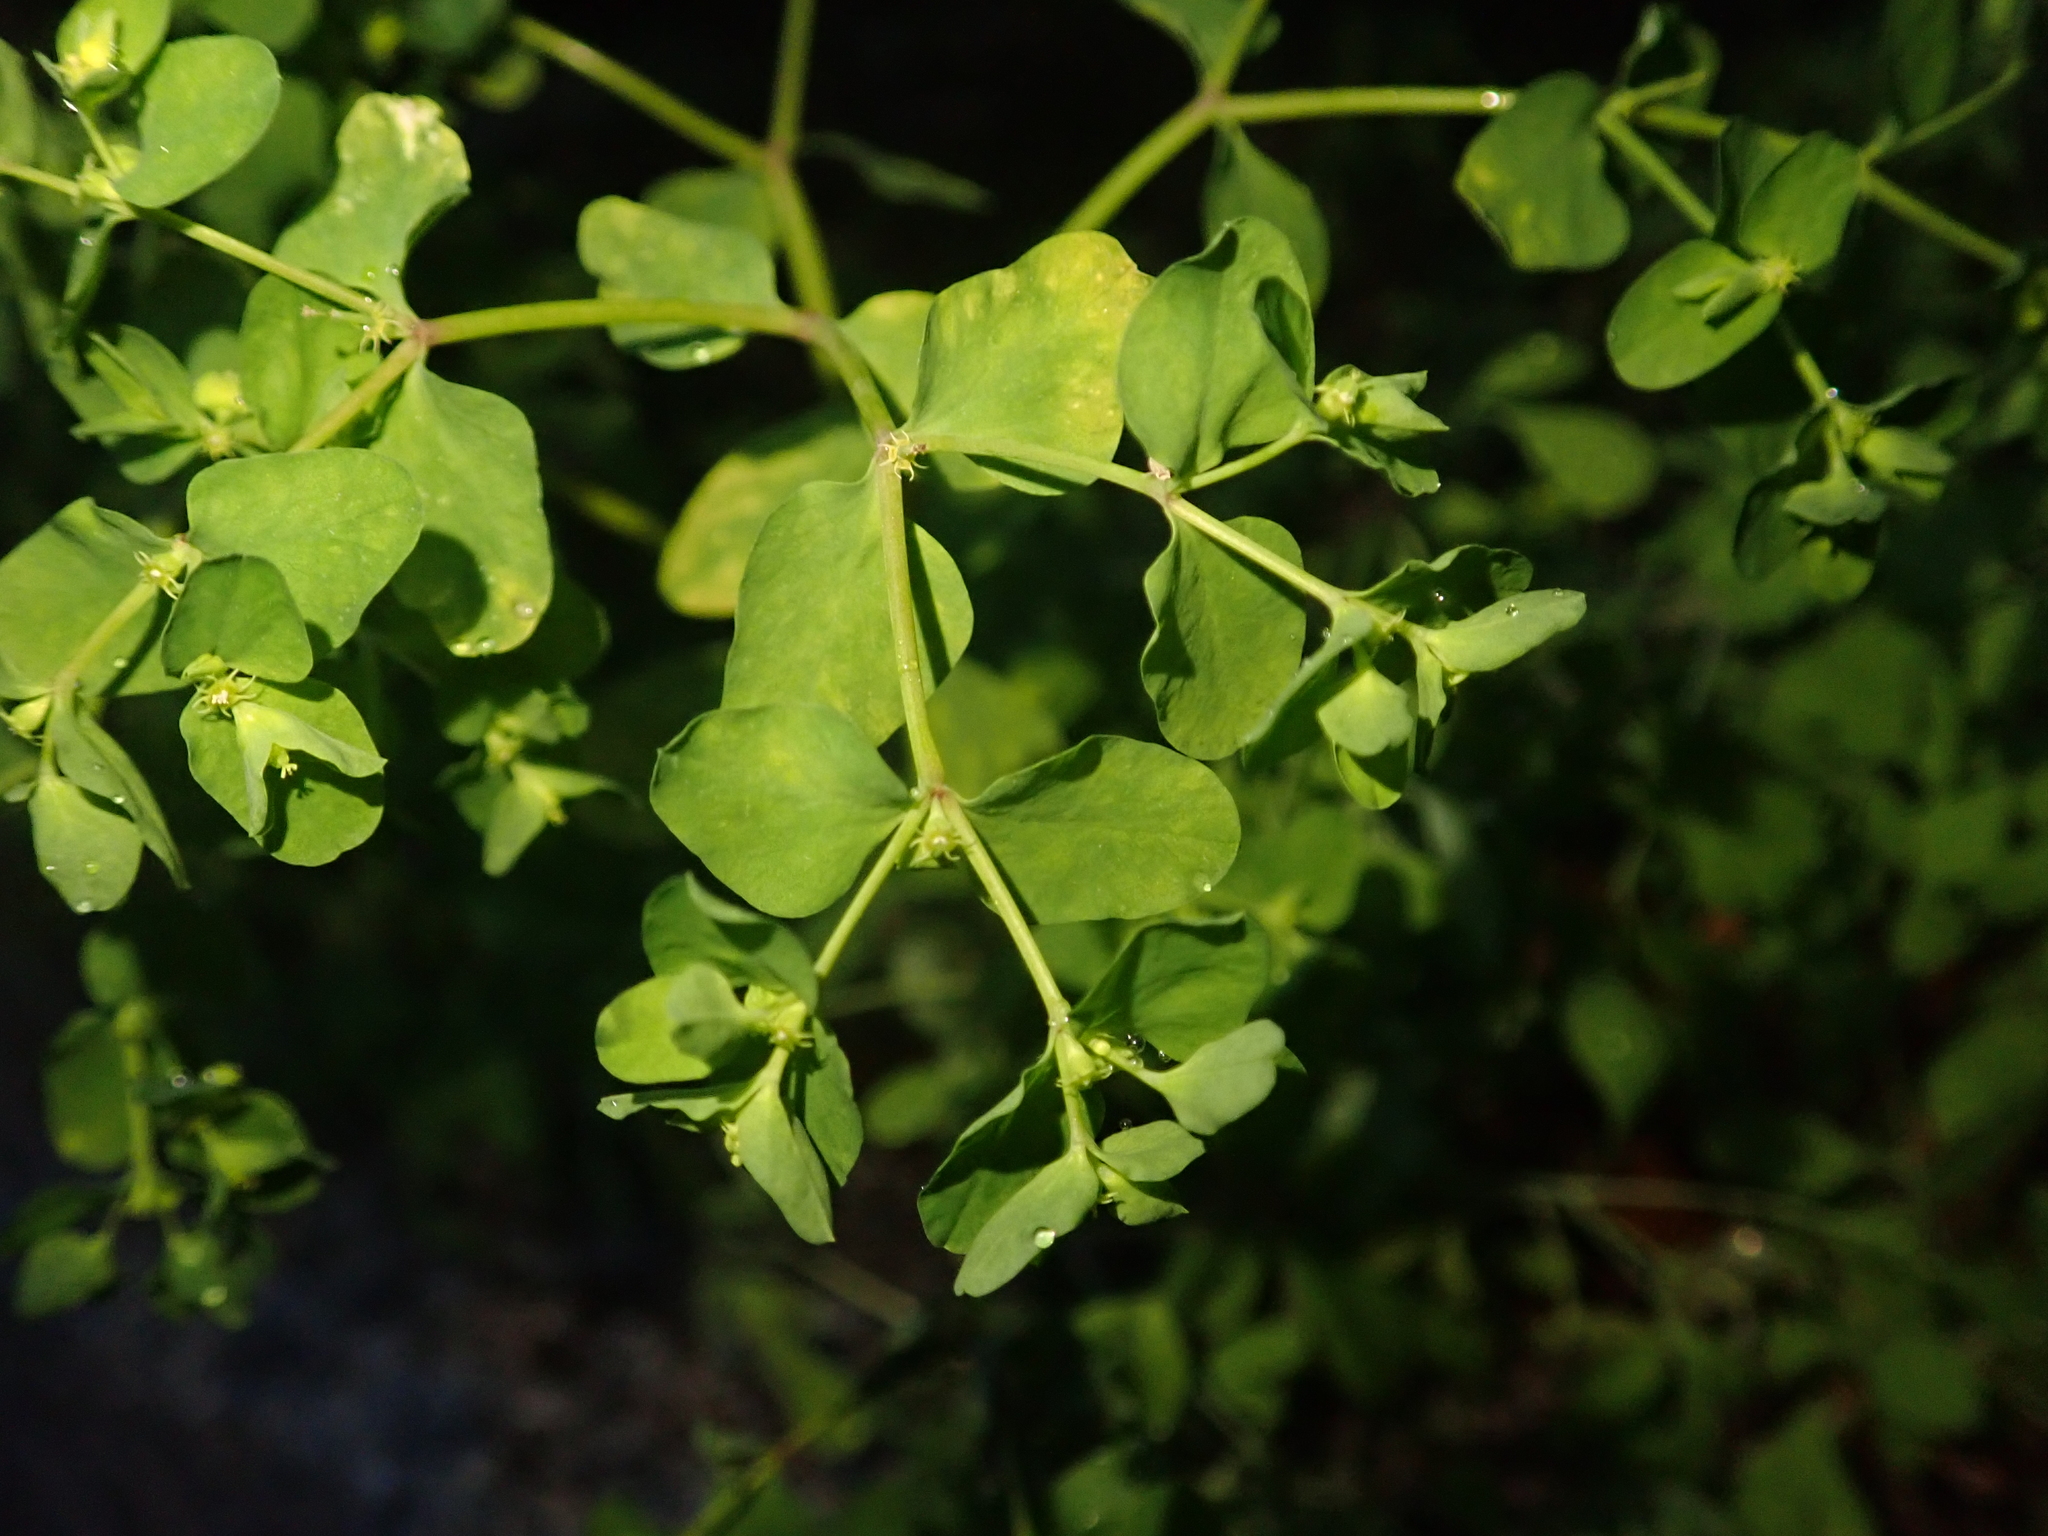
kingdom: Plantae
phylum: Tracheophyta
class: Magnoliopsida
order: Malpighiales
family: Euphorbiaceae
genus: Euphorbia
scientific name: Euphorbia peplus
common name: Petty spurge
